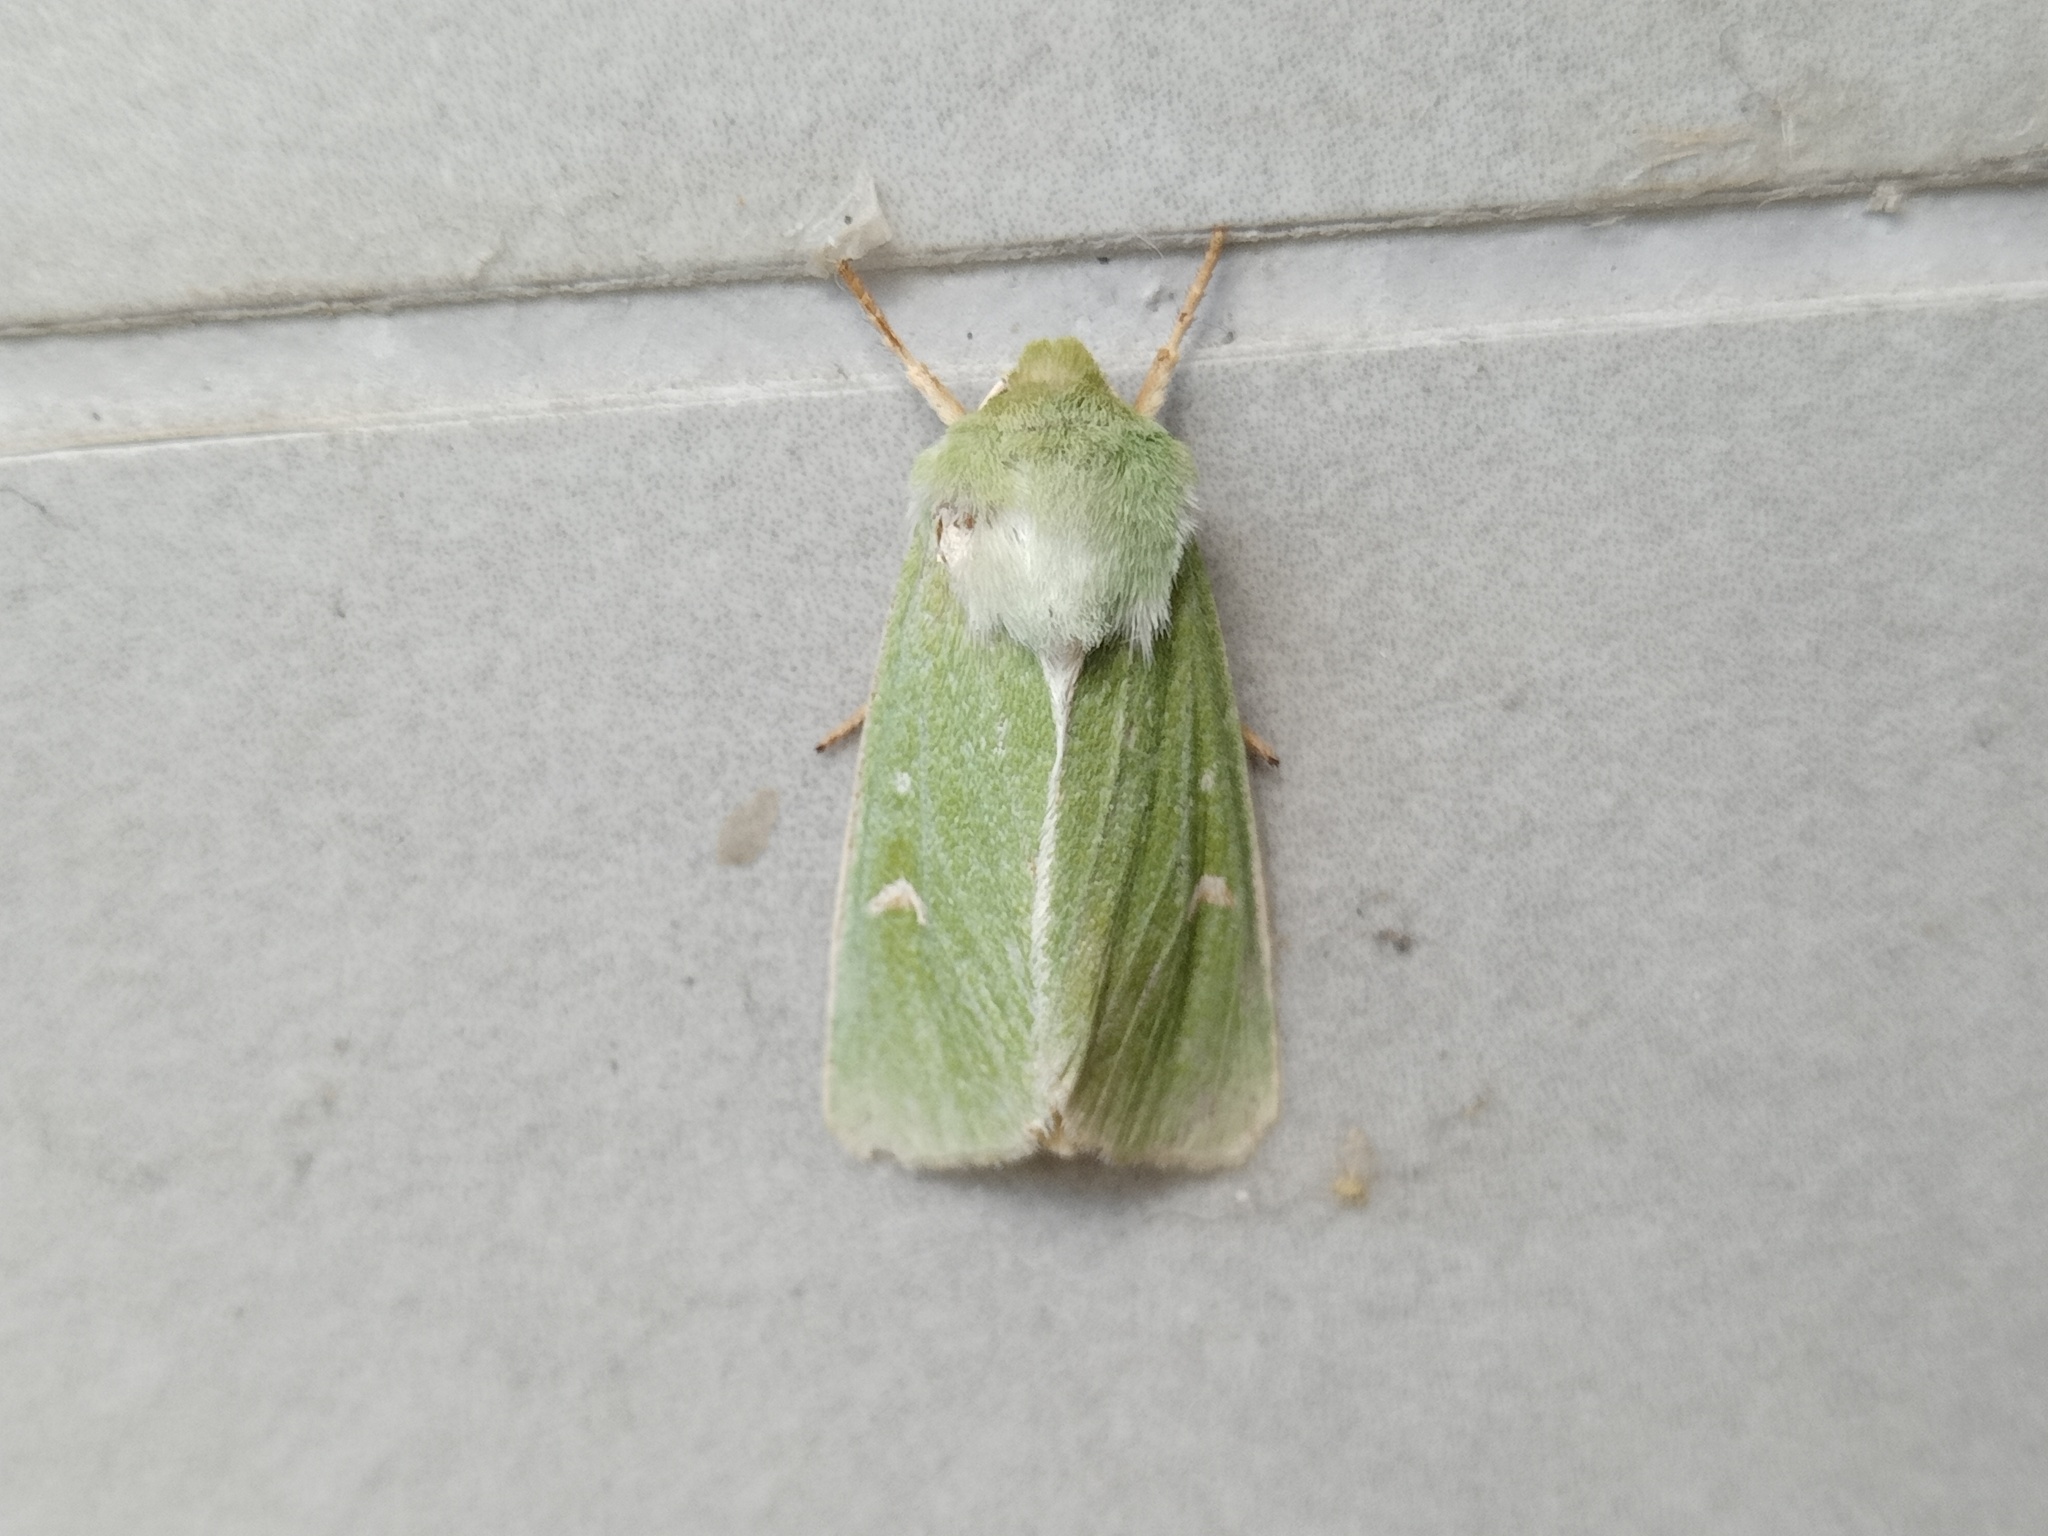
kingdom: Animalia
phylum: Arthropoda
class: Insecta
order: Lepidoptera
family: Noctuidae
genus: Calamia
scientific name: Calamia tridens
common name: Burren green
